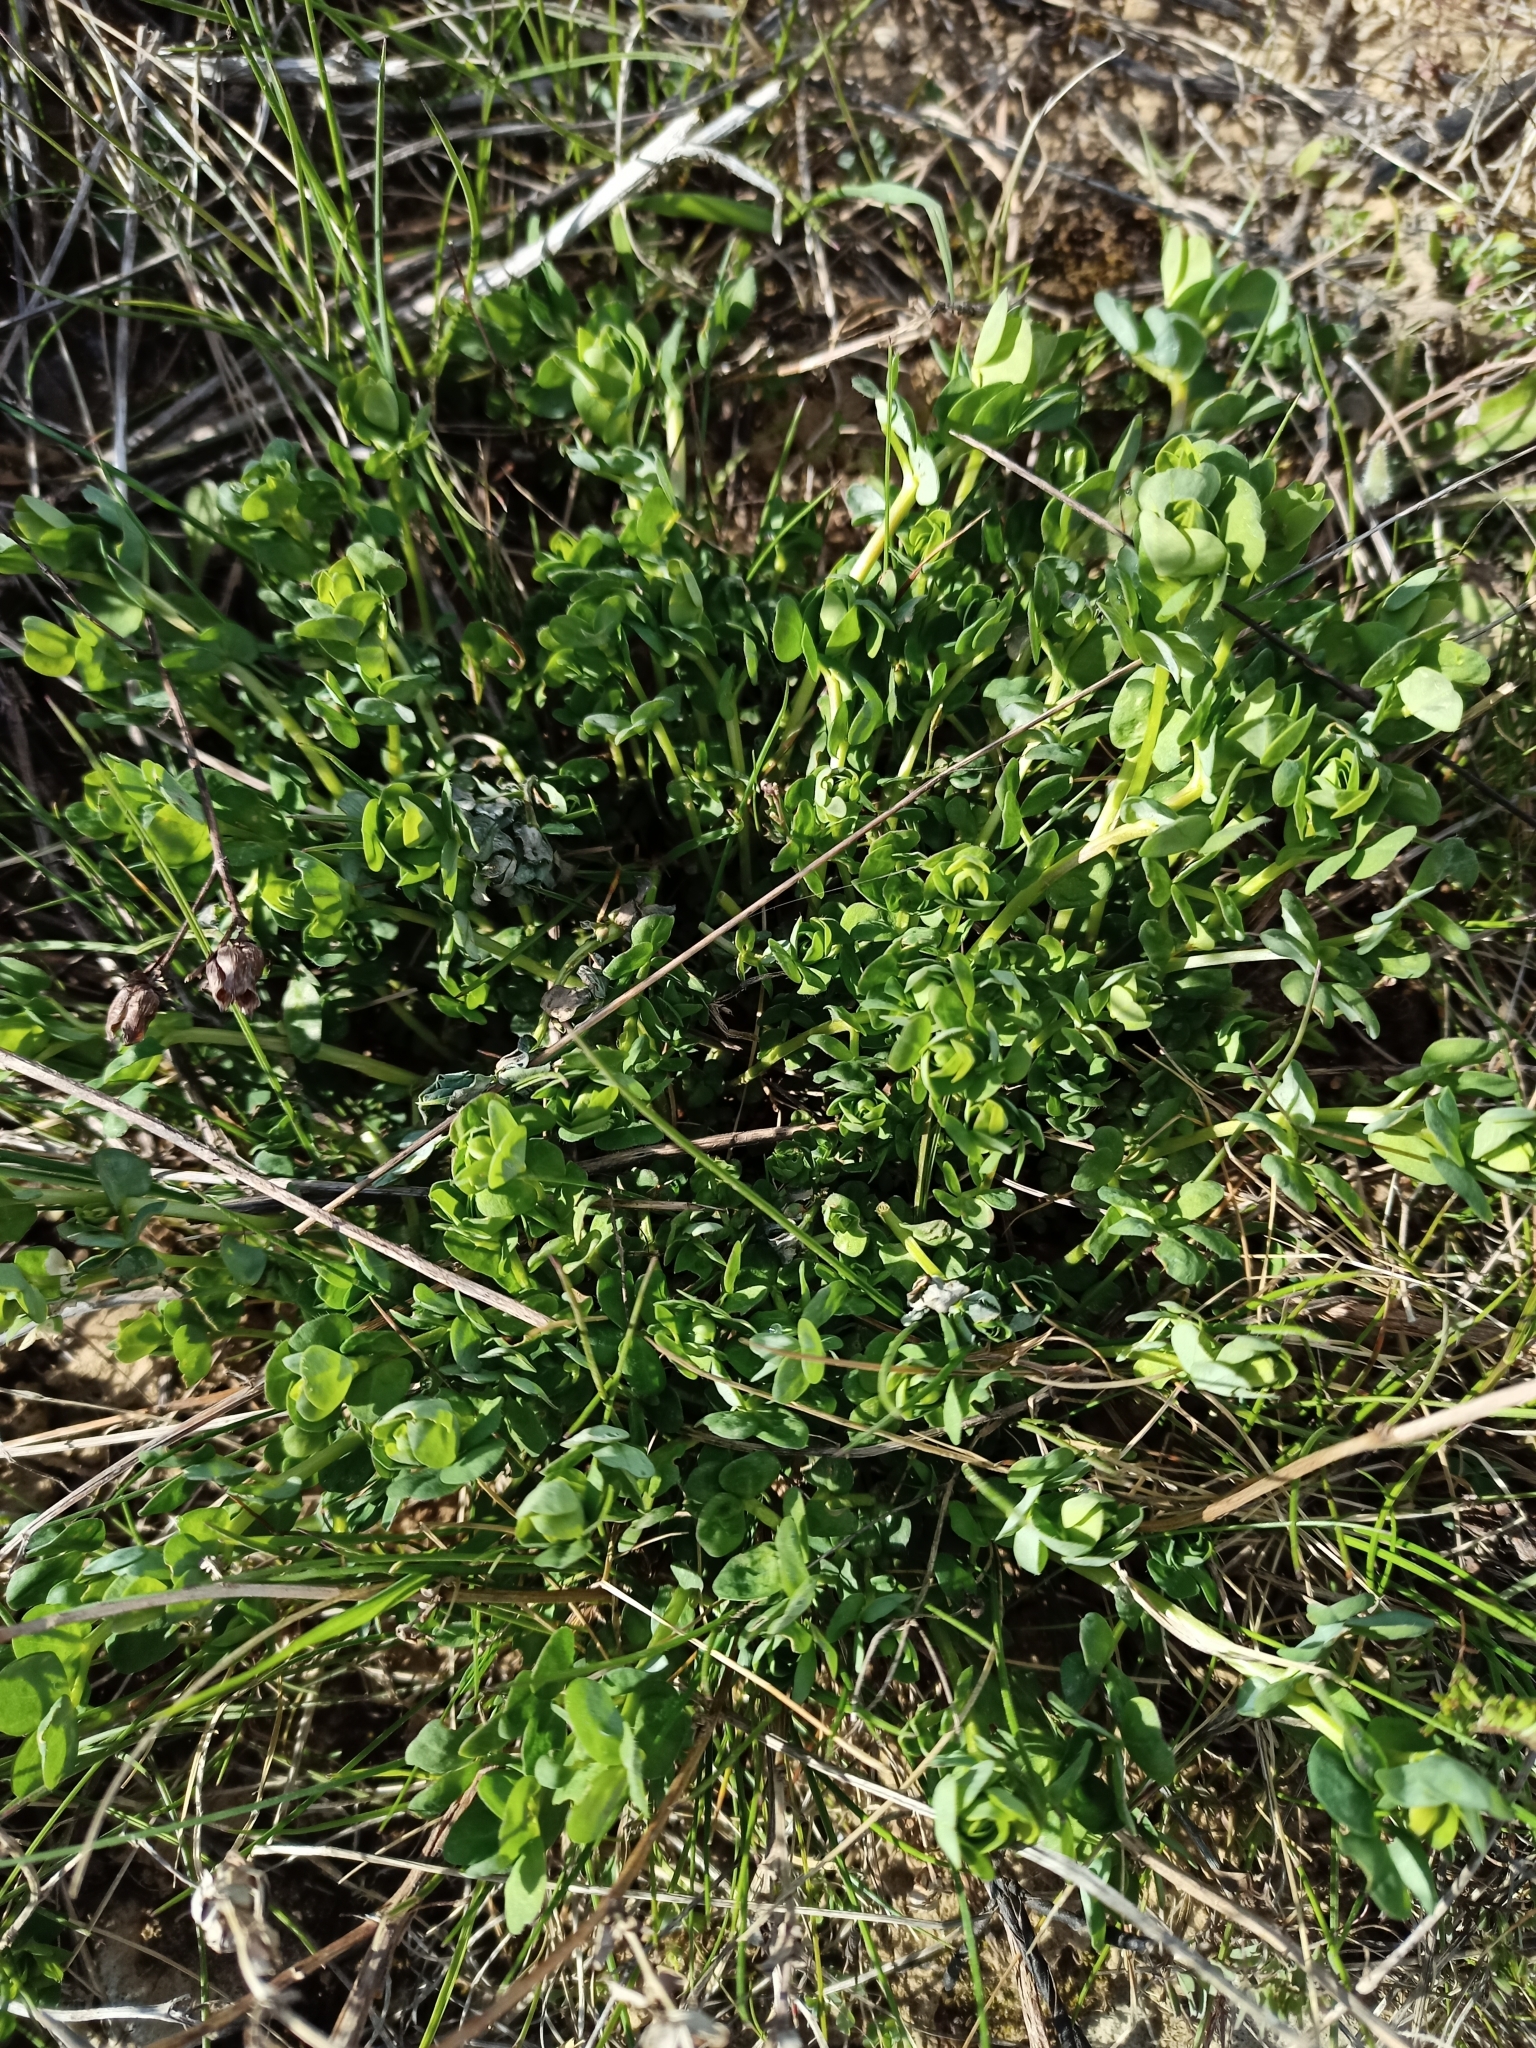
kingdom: Plantae
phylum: Tracheophyta
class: Magnoliopsida
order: Fabales
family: Fabaceae
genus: Lotus
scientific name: Lotus corniculatus
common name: Common bird's-foot-trefoil
